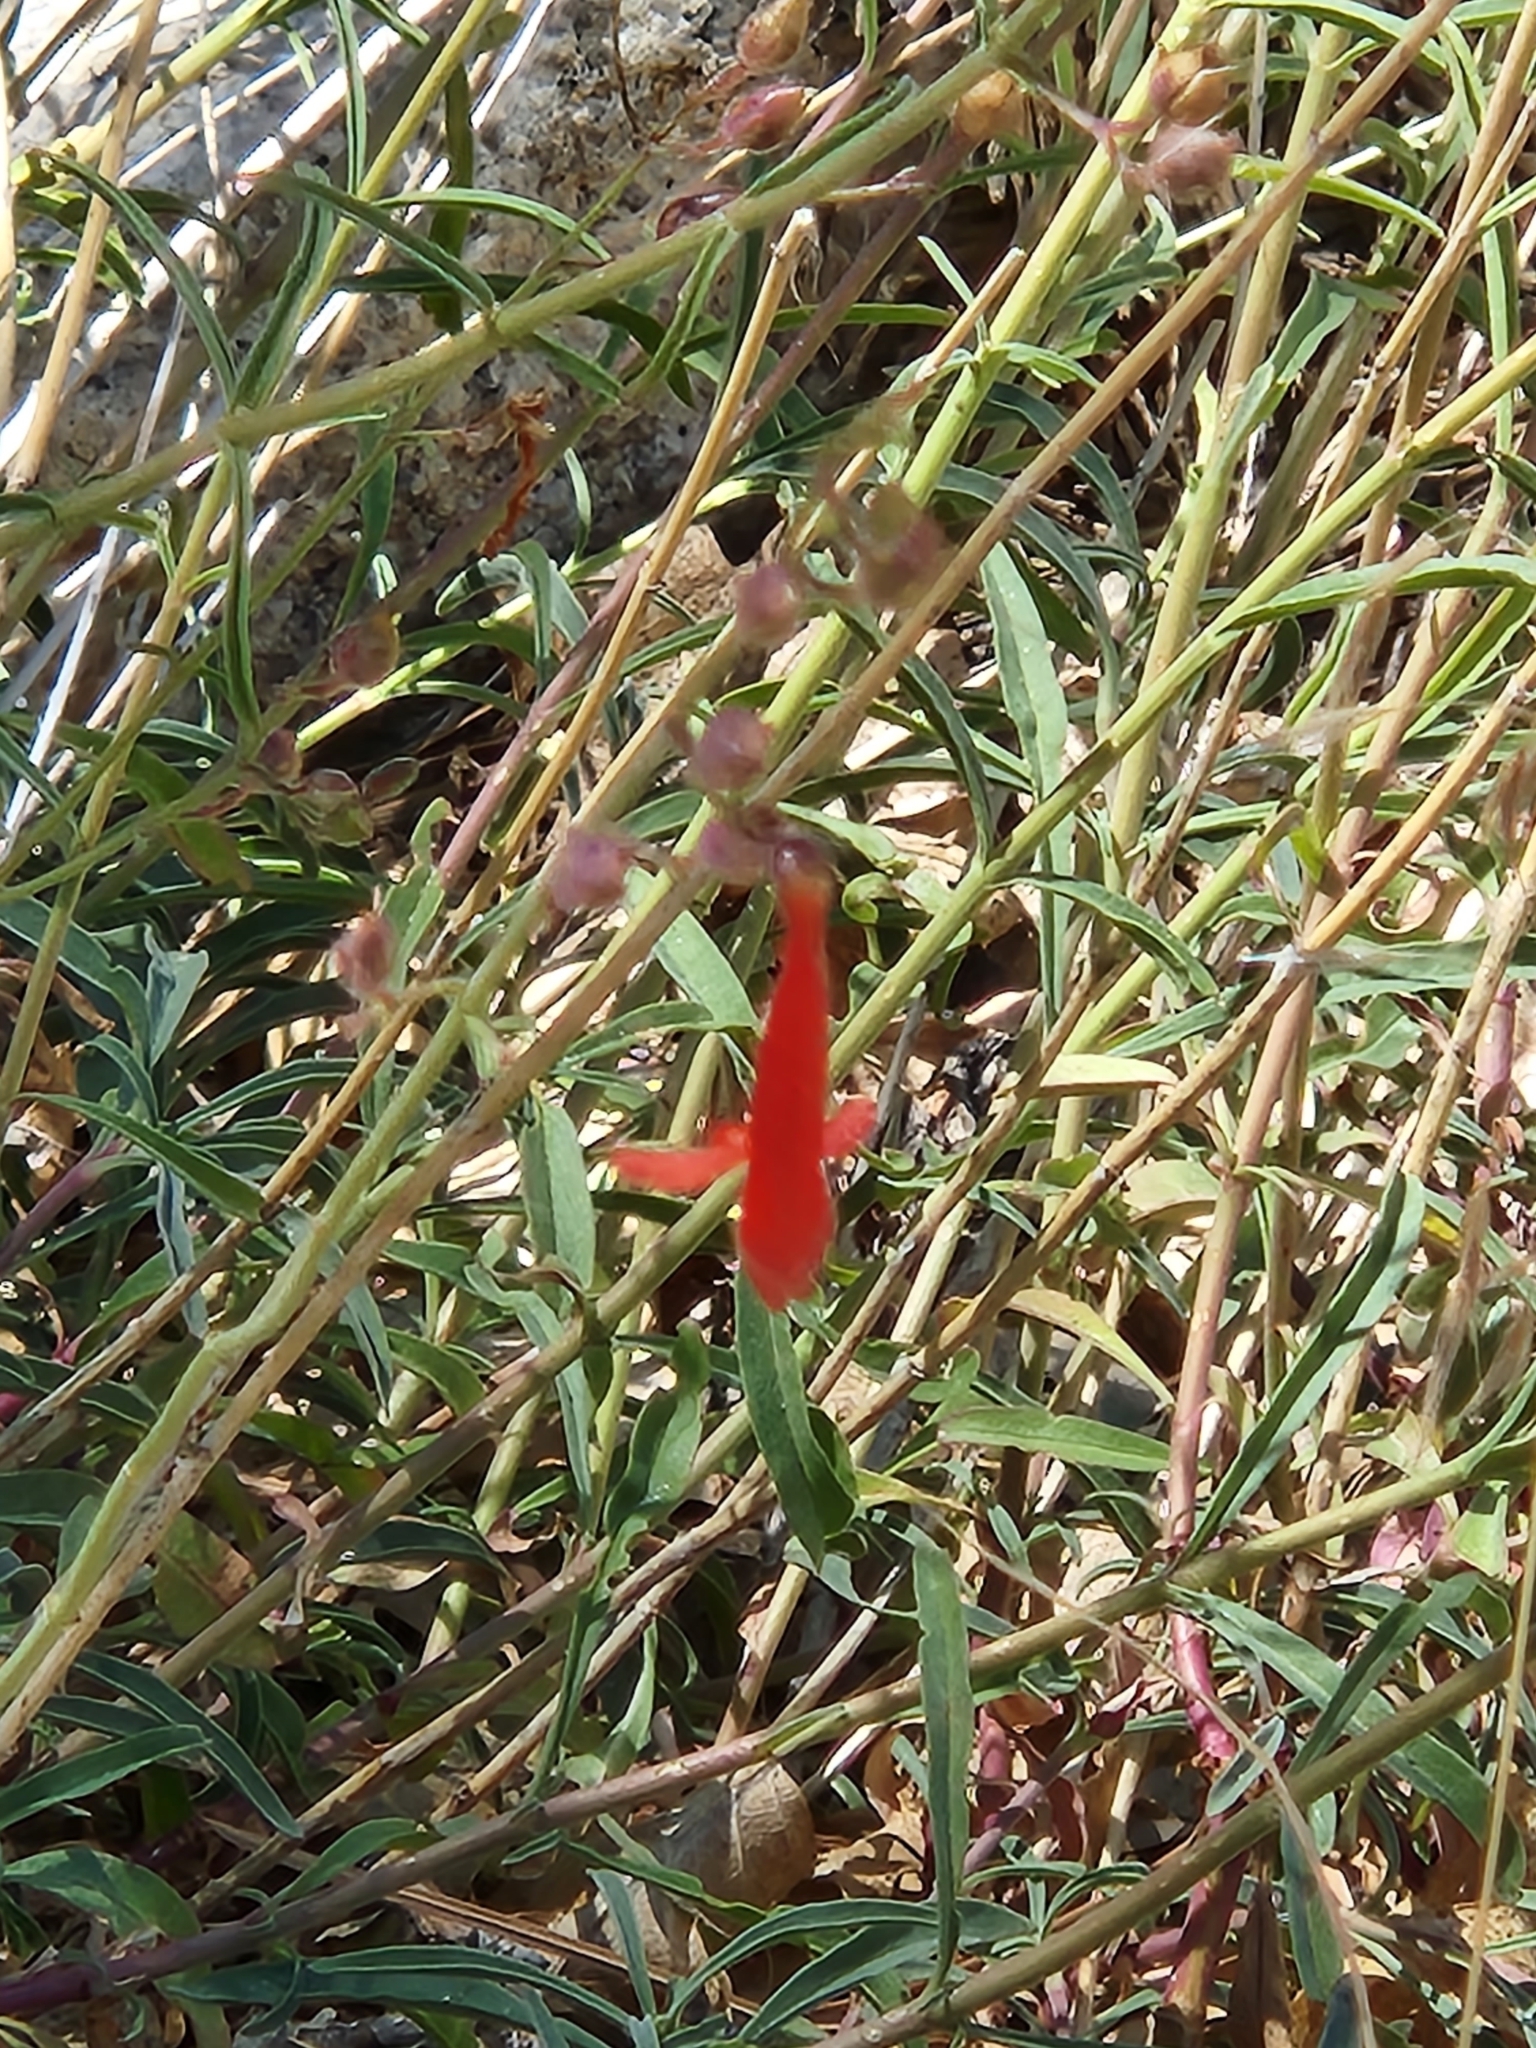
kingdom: Plantae
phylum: Tracheophyta
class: Magnoliopsida
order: Lamiales
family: Plantaginaceae
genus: Penstemon
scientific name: Penstemon rostriflorus
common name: Bridges's penstemon
